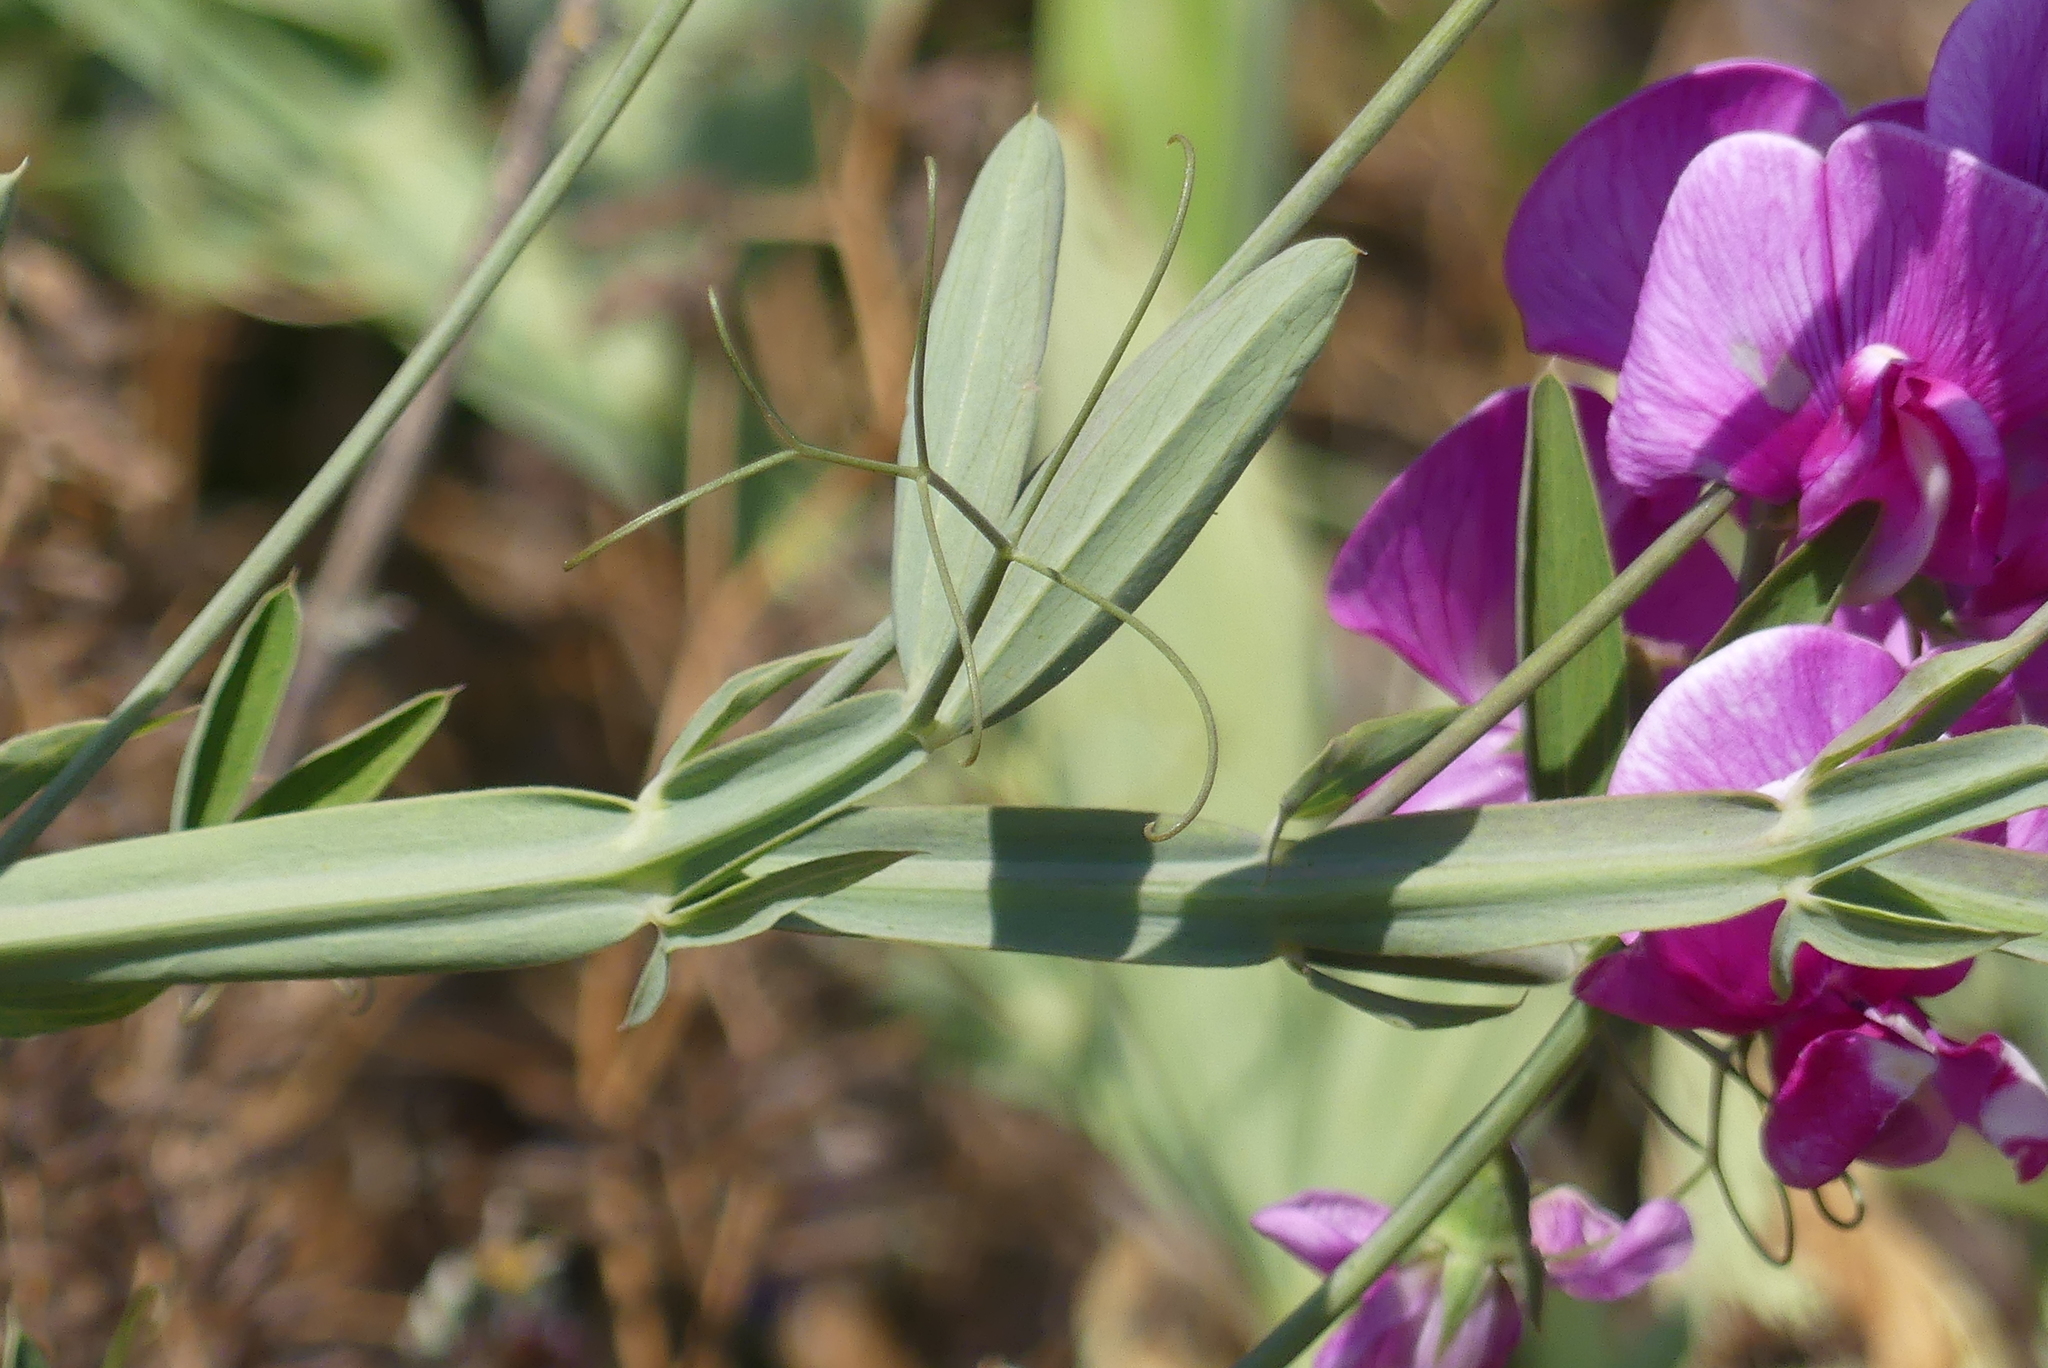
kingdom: Plantae
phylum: Tracheophyta
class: Magnoliopsida
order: Fabales
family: Fabaceae
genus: Lathyrus
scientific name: Lathyrus latifolius
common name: Perennial pea
